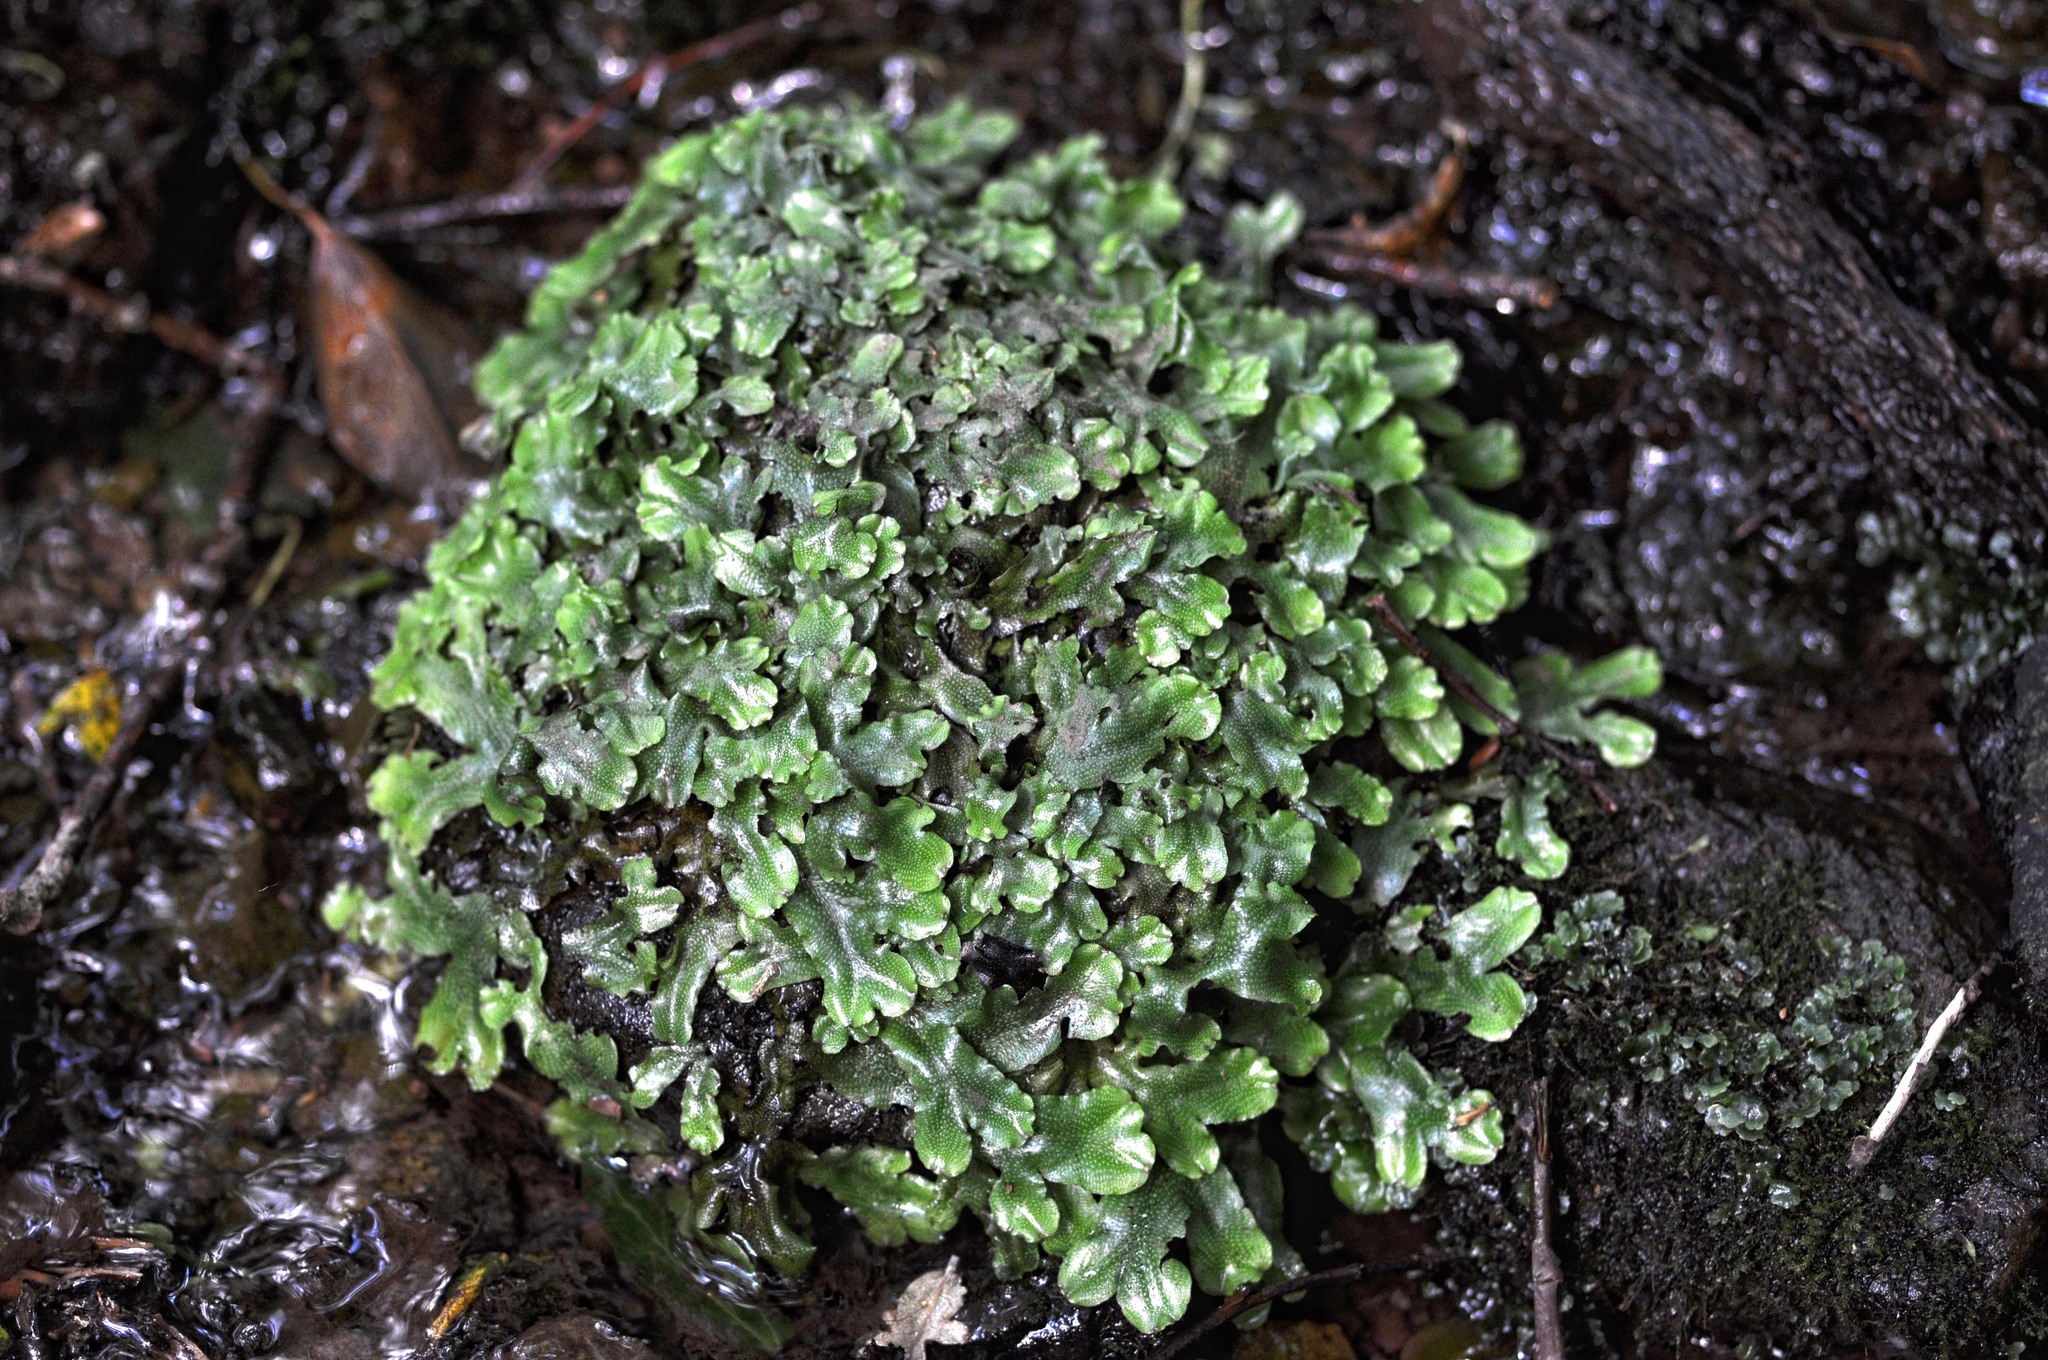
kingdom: Plantae
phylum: Marchantiophyta
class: Marchantiopsida
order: Marchantiales
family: Conocephalaceae
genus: Conocephalum
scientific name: Conocephalum conicum
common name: Great scented liverwort
